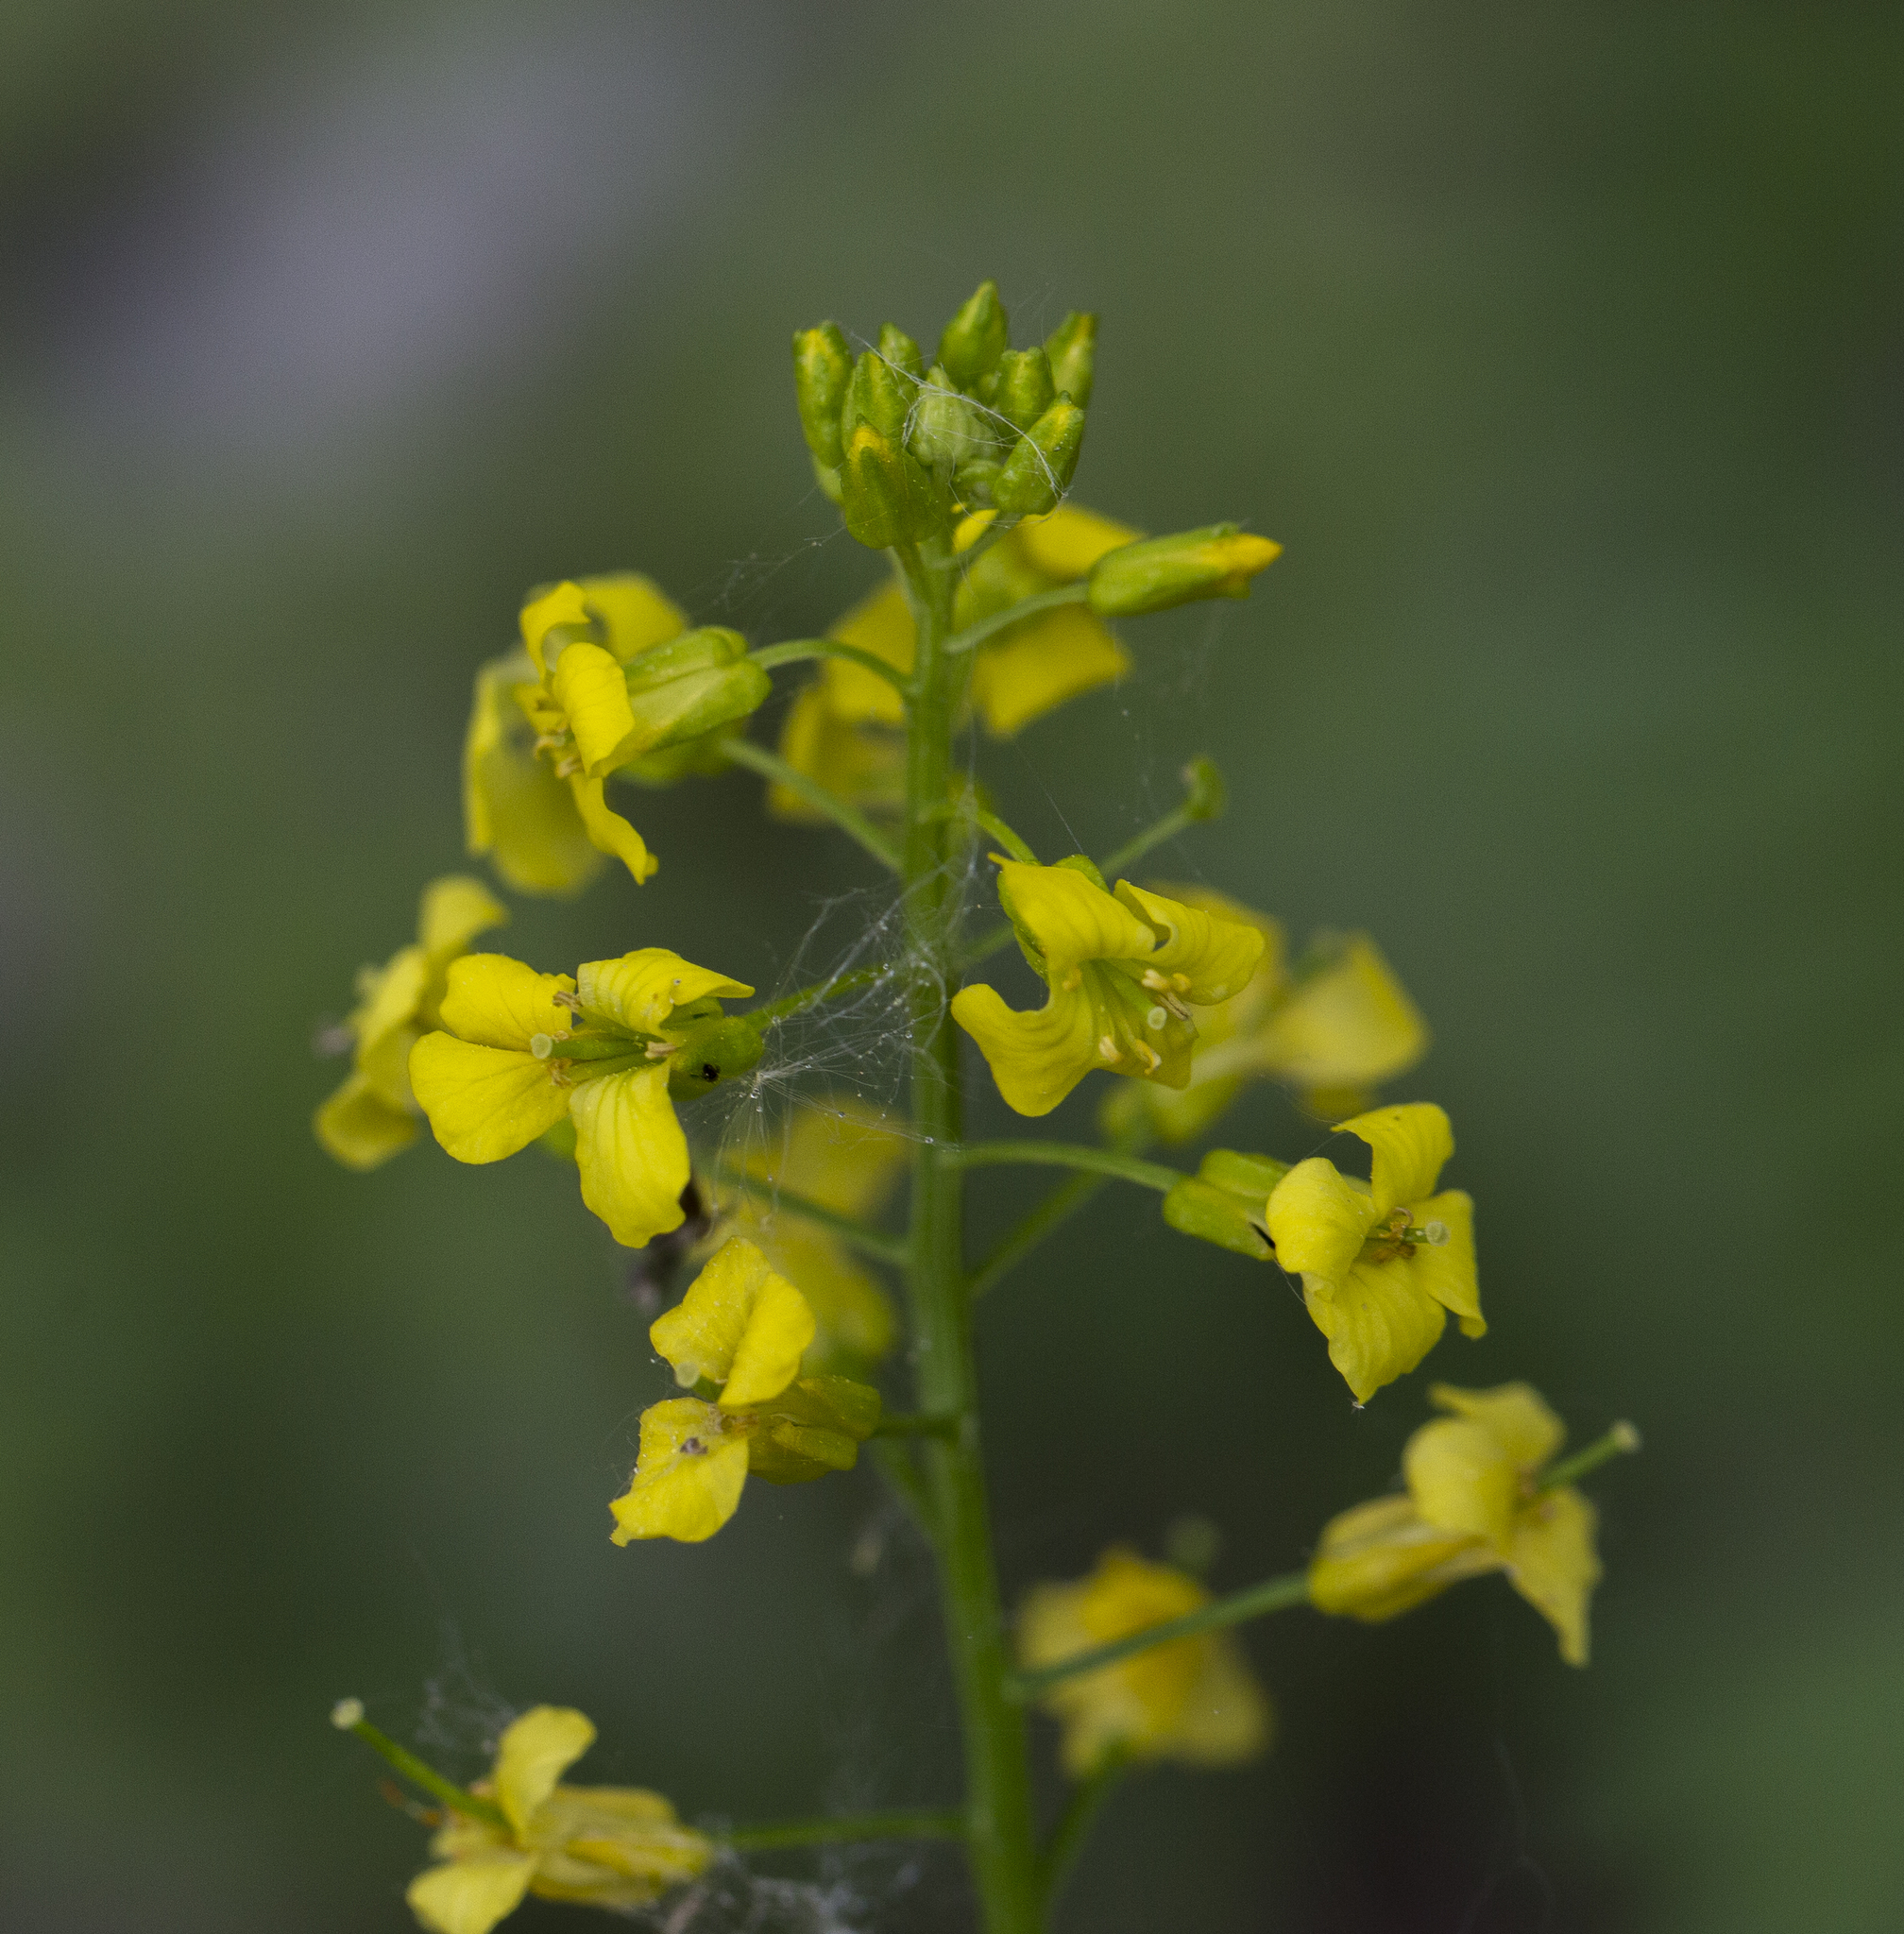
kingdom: Plantae
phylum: Tracheophyta
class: Magnoliopsida
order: Brassicales
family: Brassicaceae
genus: Barbarea
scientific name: Barbarea vulgaris
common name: Cressy-greens
